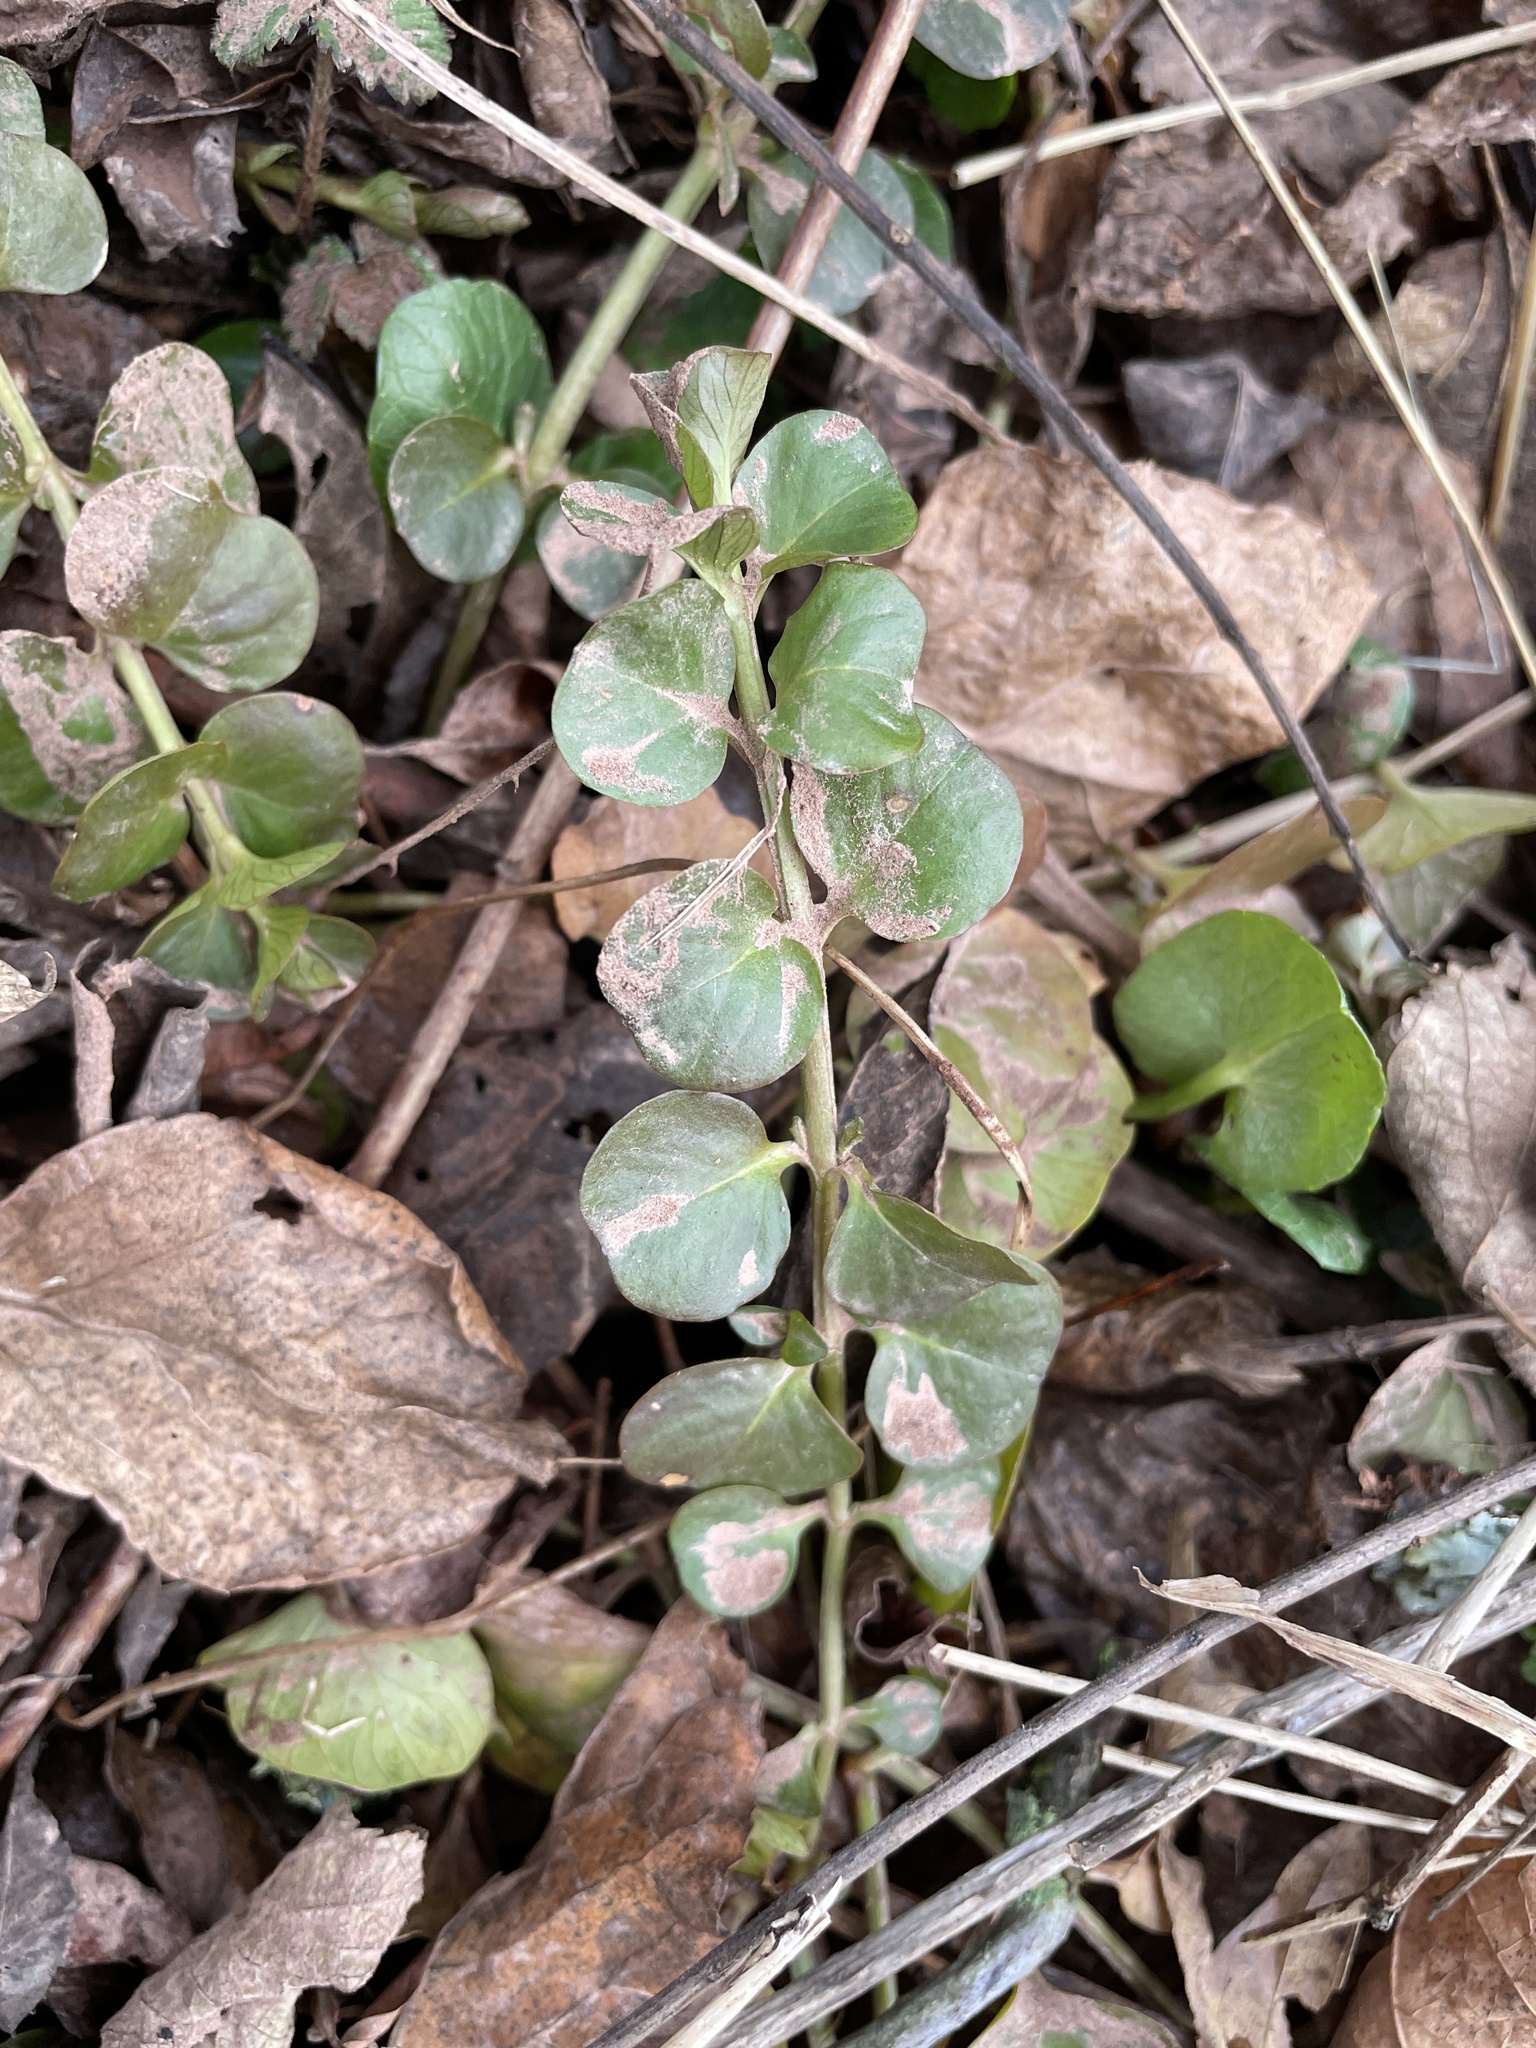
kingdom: Plantae
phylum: Tracheophyta
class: Magnoliopsida
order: Ericales
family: Primulaceae
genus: Lysimachia
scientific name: Lysimachia nummularia
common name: Moneywort
